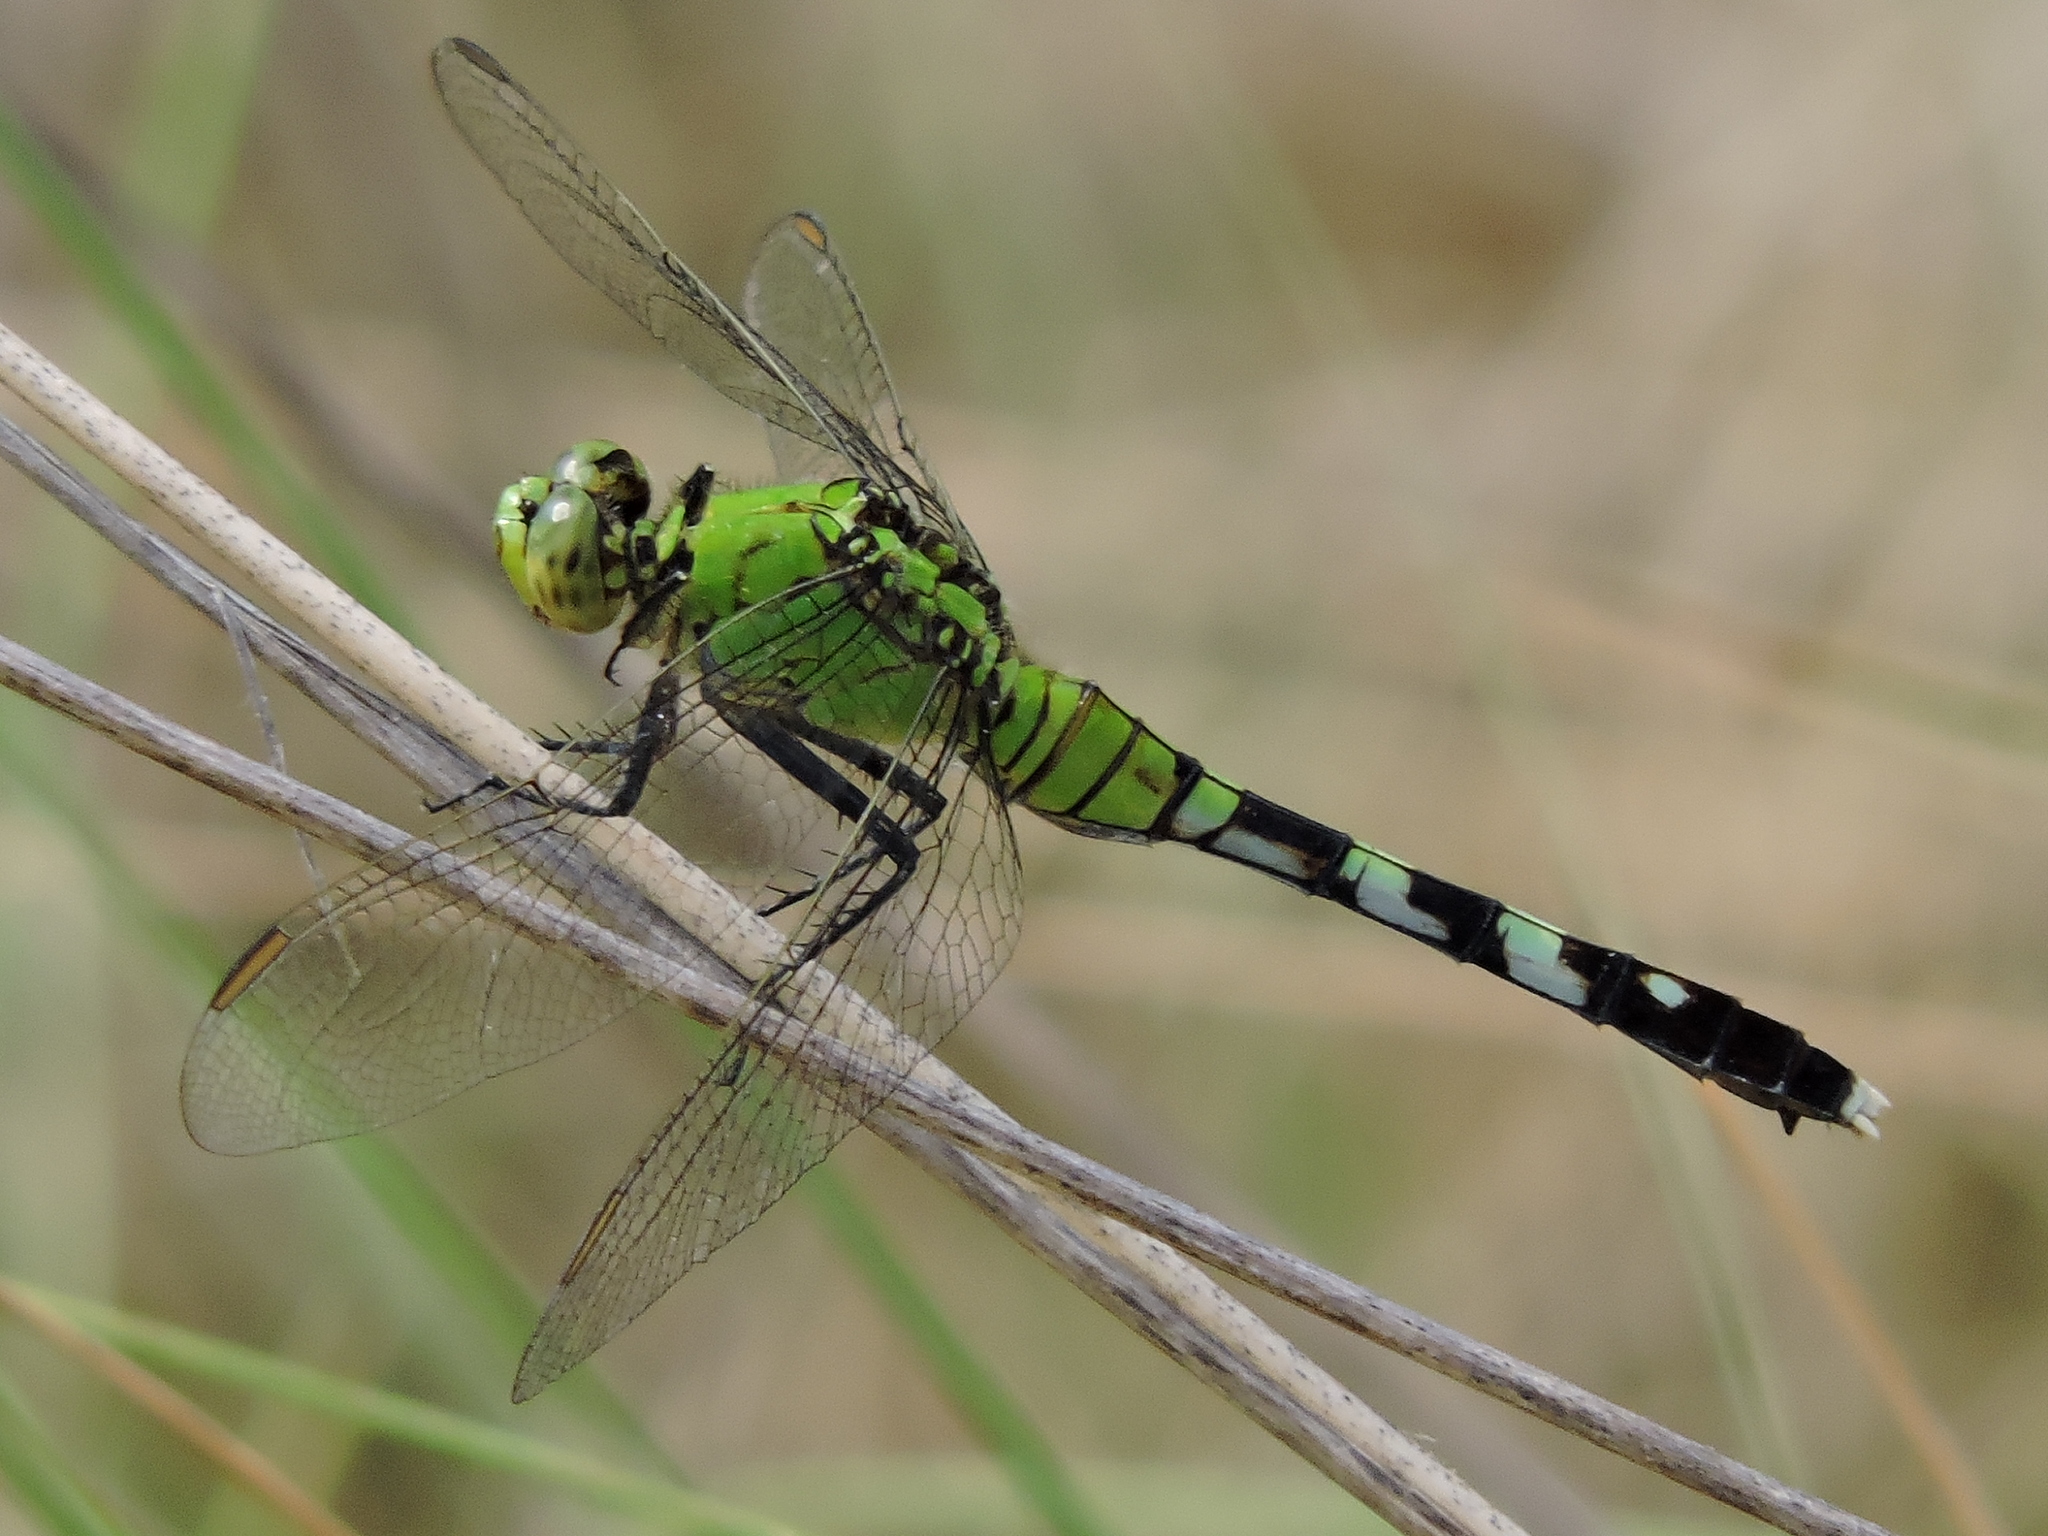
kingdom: Animalia
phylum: Arthropoda
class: Insecta
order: Odonata
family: Libellulidae
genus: Erythemis
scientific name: Erythemis simplicicollis
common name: Eastern pondhawk
